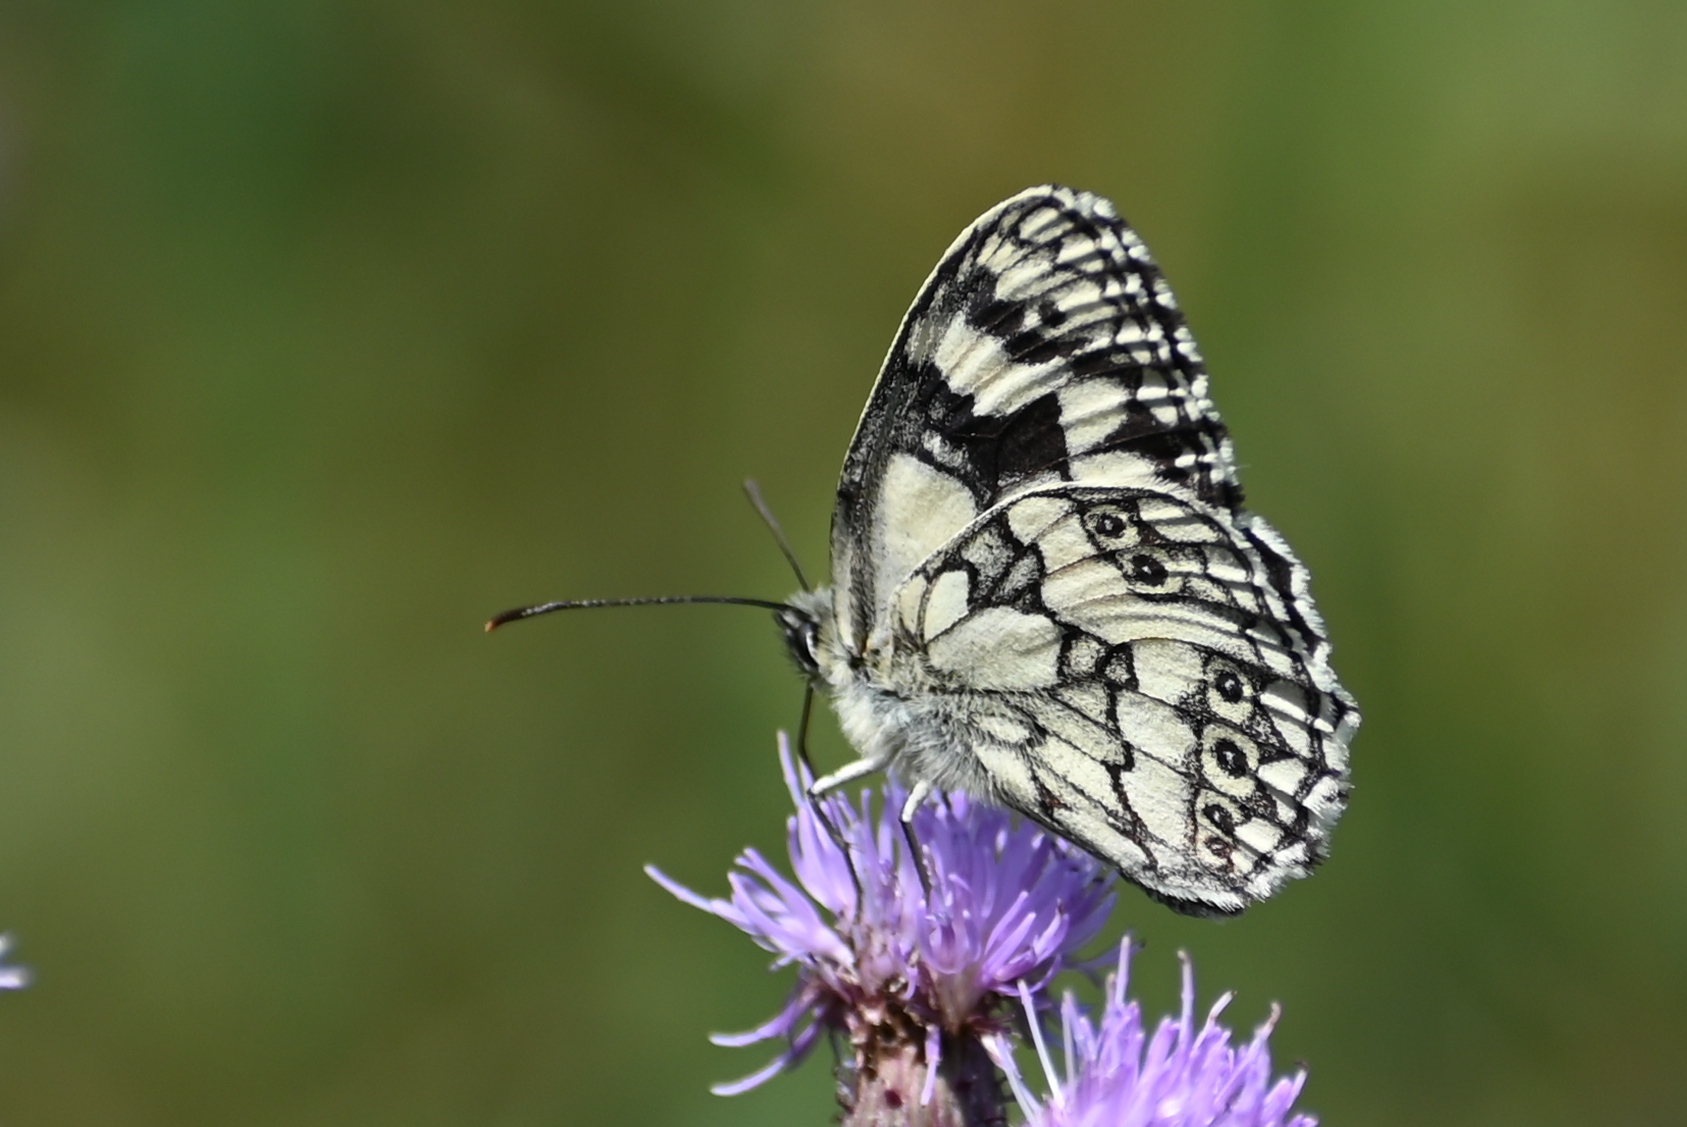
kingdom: Animalia
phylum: Arthropoda
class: Insecta
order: Lepidoptera
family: Nymphalidae
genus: Melanargia
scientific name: Melanargia galathea
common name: Marbled white
